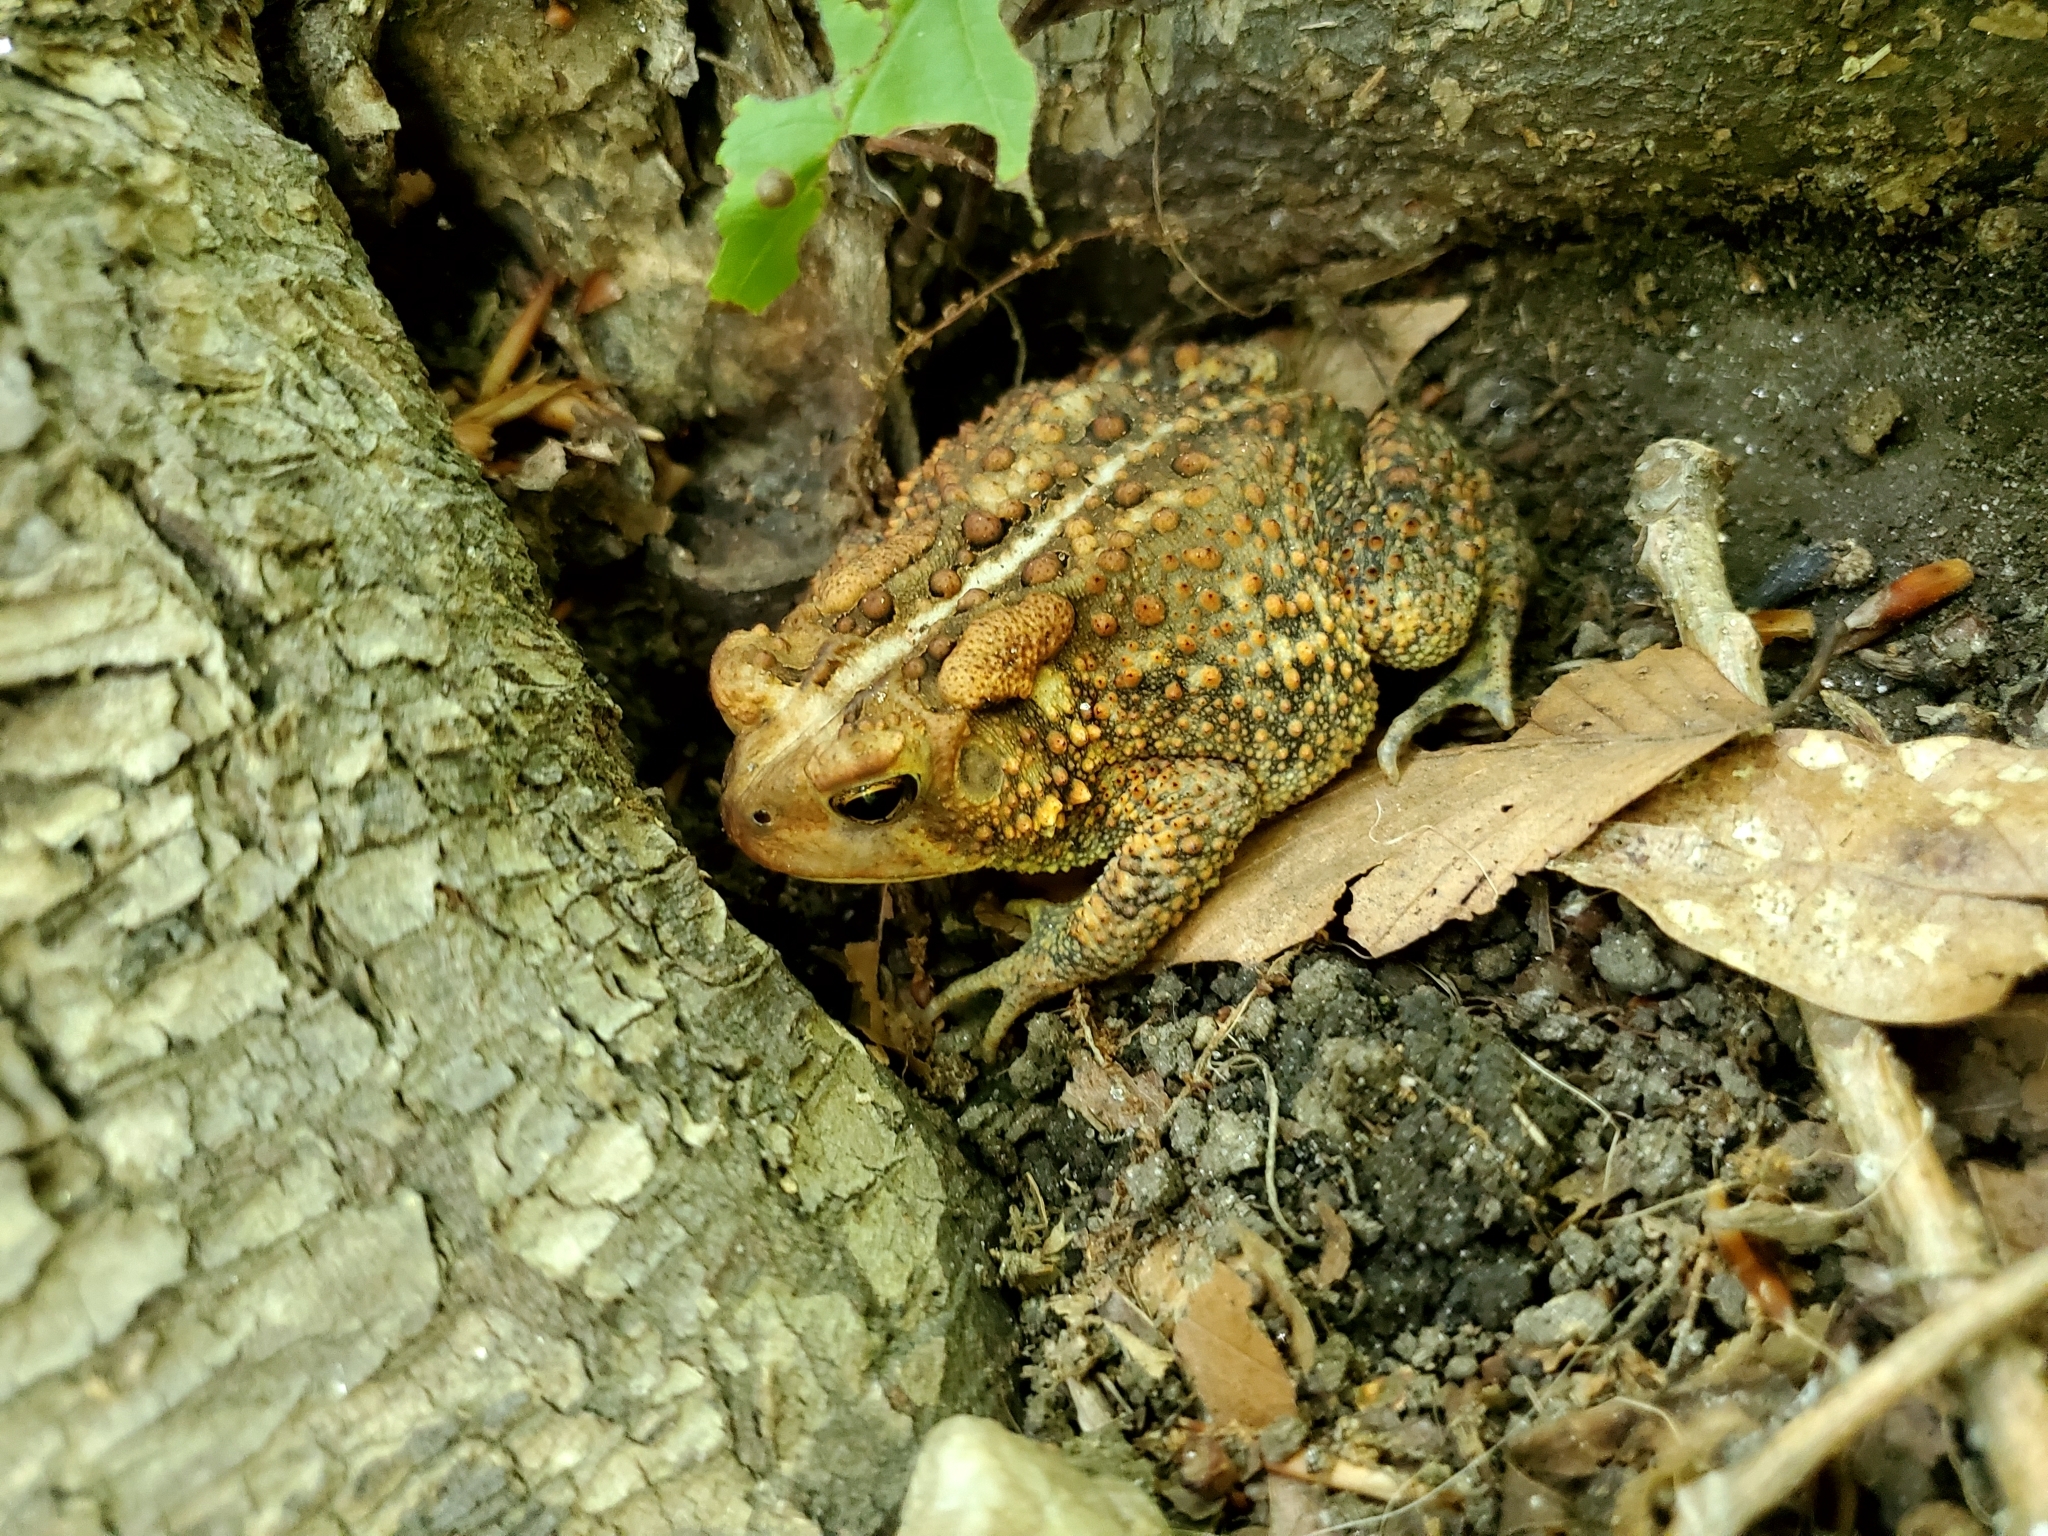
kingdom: Animalia
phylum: Chordata
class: Amphibia
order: Anura
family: Bufonidae
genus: Anaxyrus
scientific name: Anaxyrus americanus
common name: American toad
